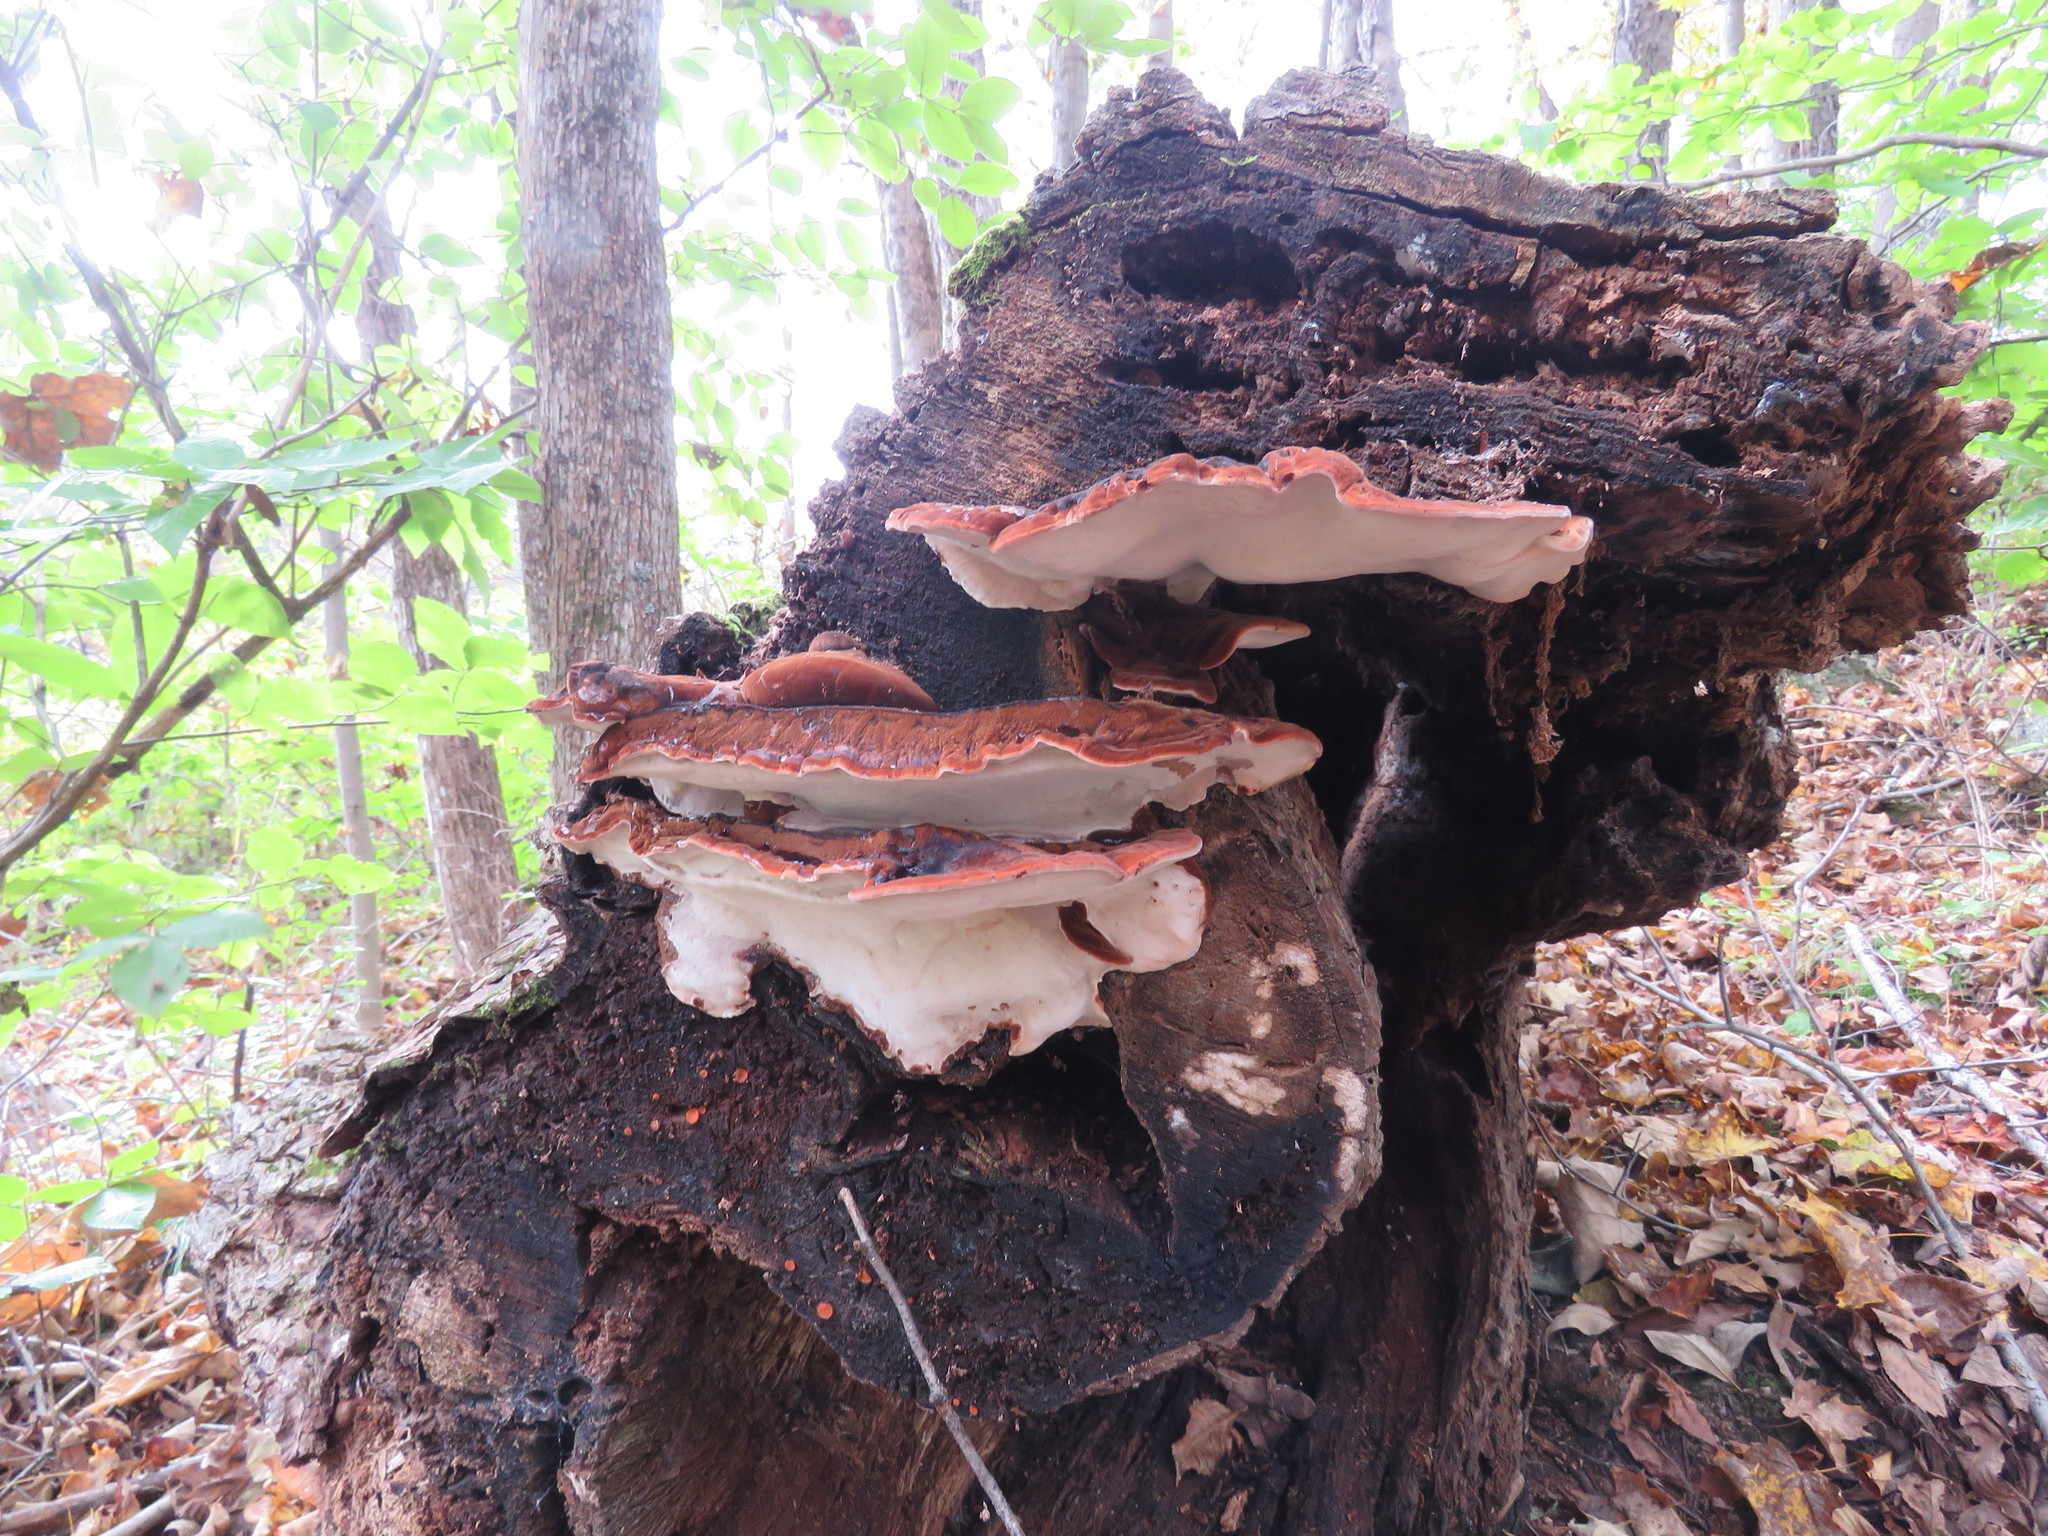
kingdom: Fungi
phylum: Basidiomycota
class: Agaricomycetes
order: Polyporales
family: Ischnodermataceae
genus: Ischnoderma
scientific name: Ischnoderma resinosum
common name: Resinous polypore
